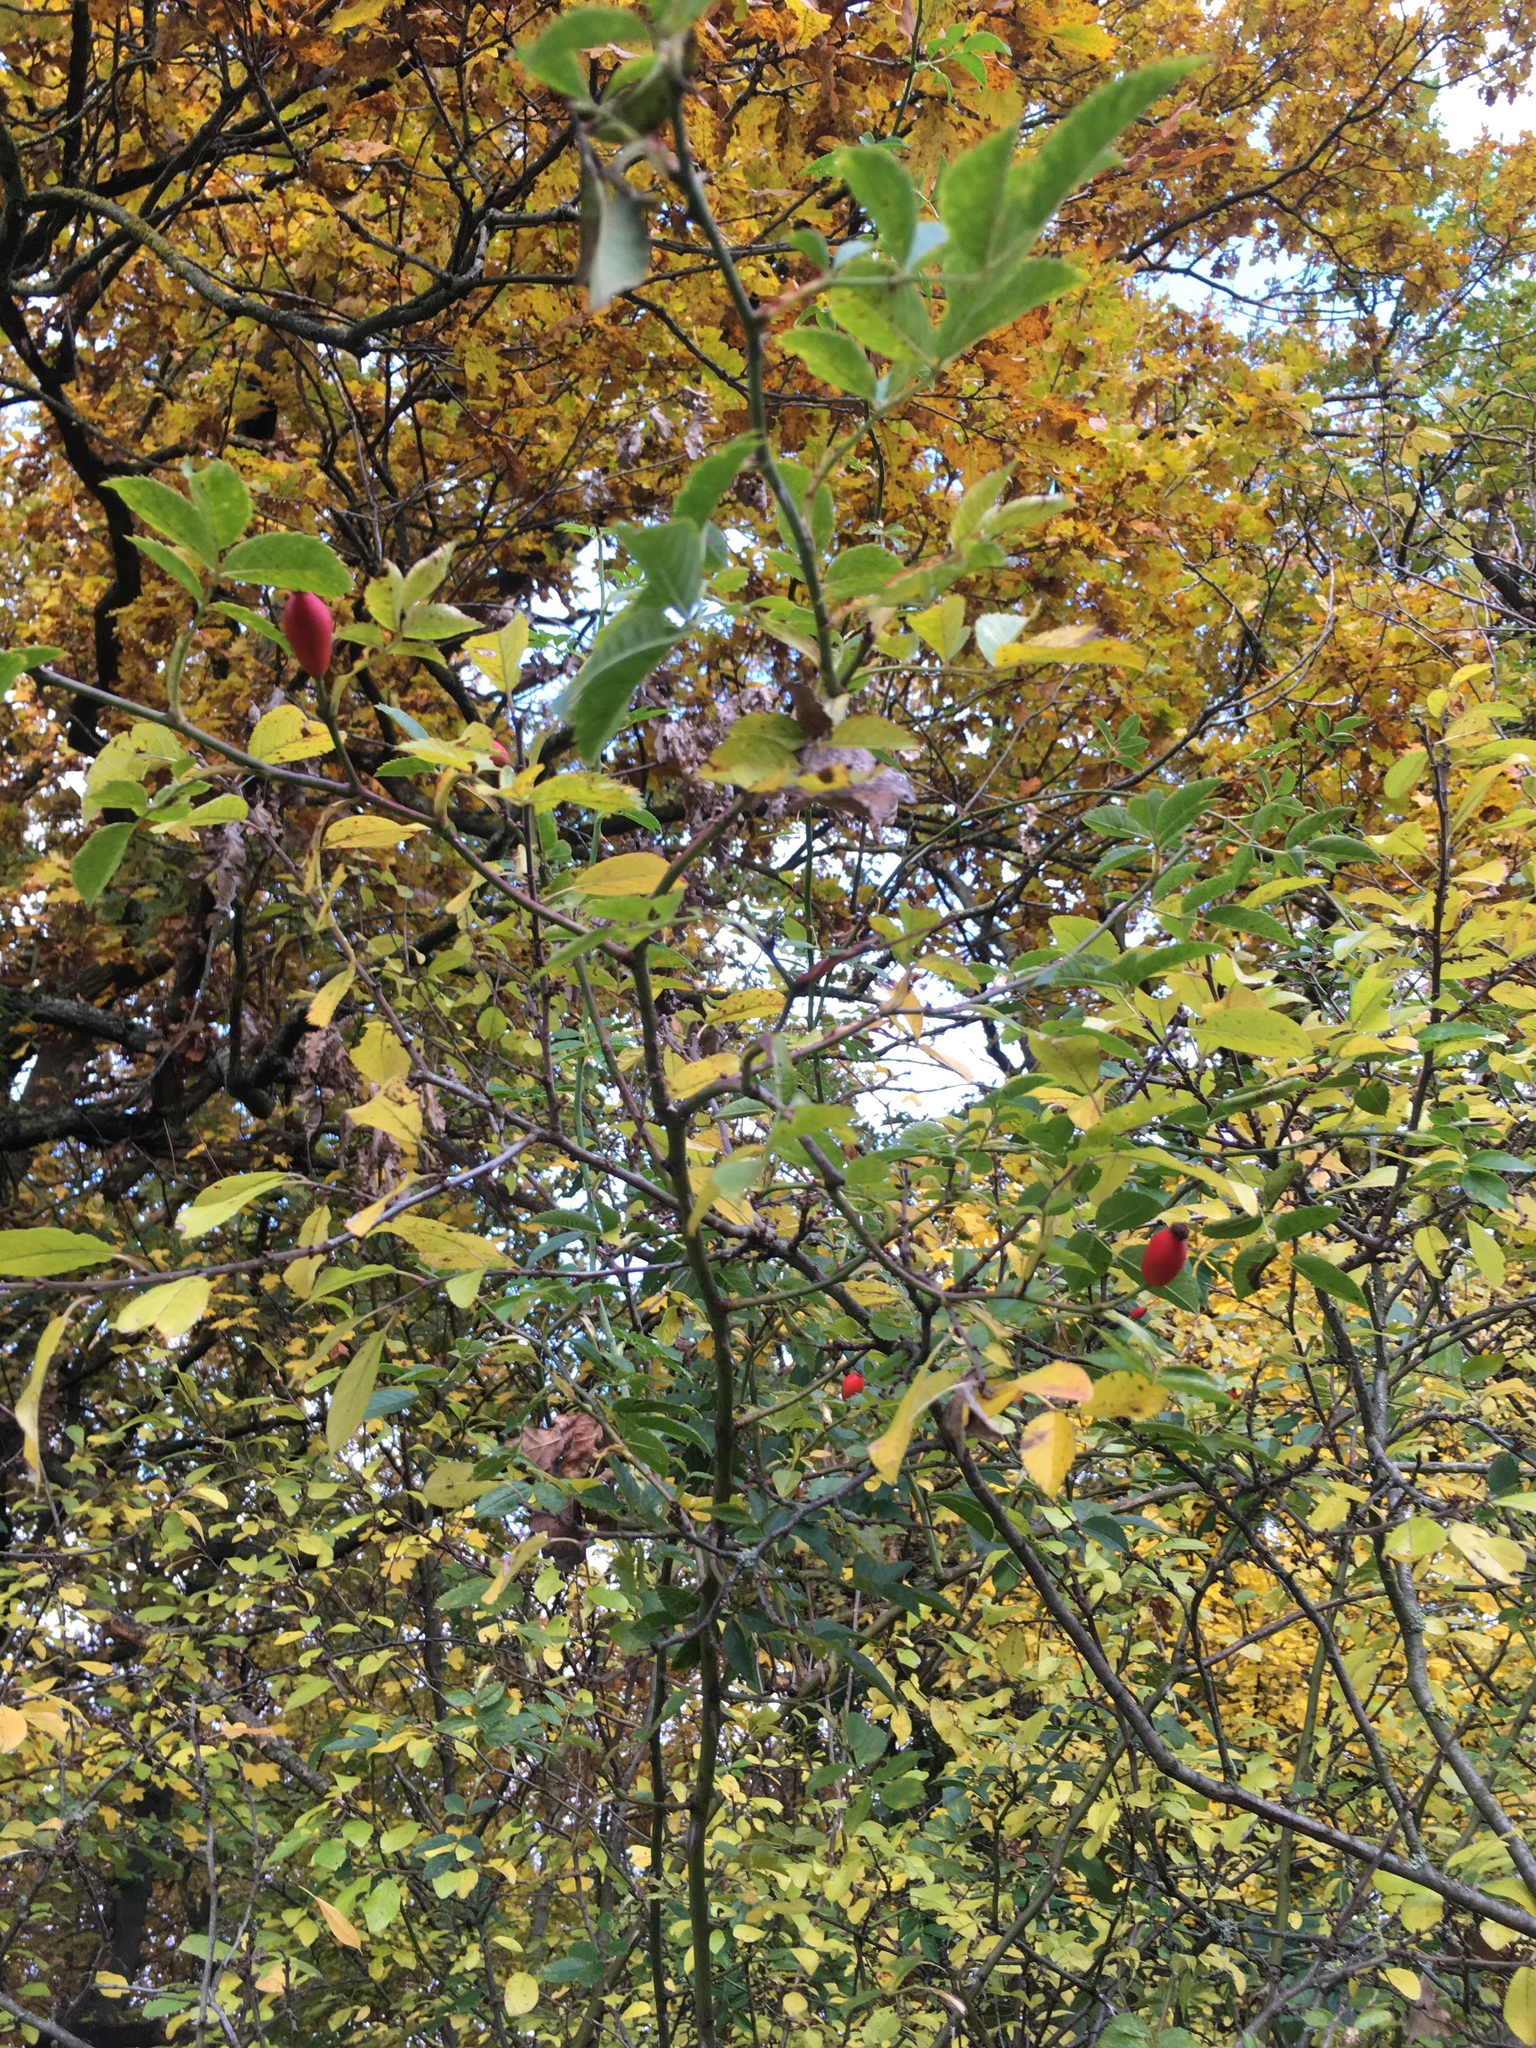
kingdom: Plantae
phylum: Tracheophyta
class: Magnoliopsida
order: Rosales
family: Rosaceae
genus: Rosa
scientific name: Rosa canina
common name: Dog rose
